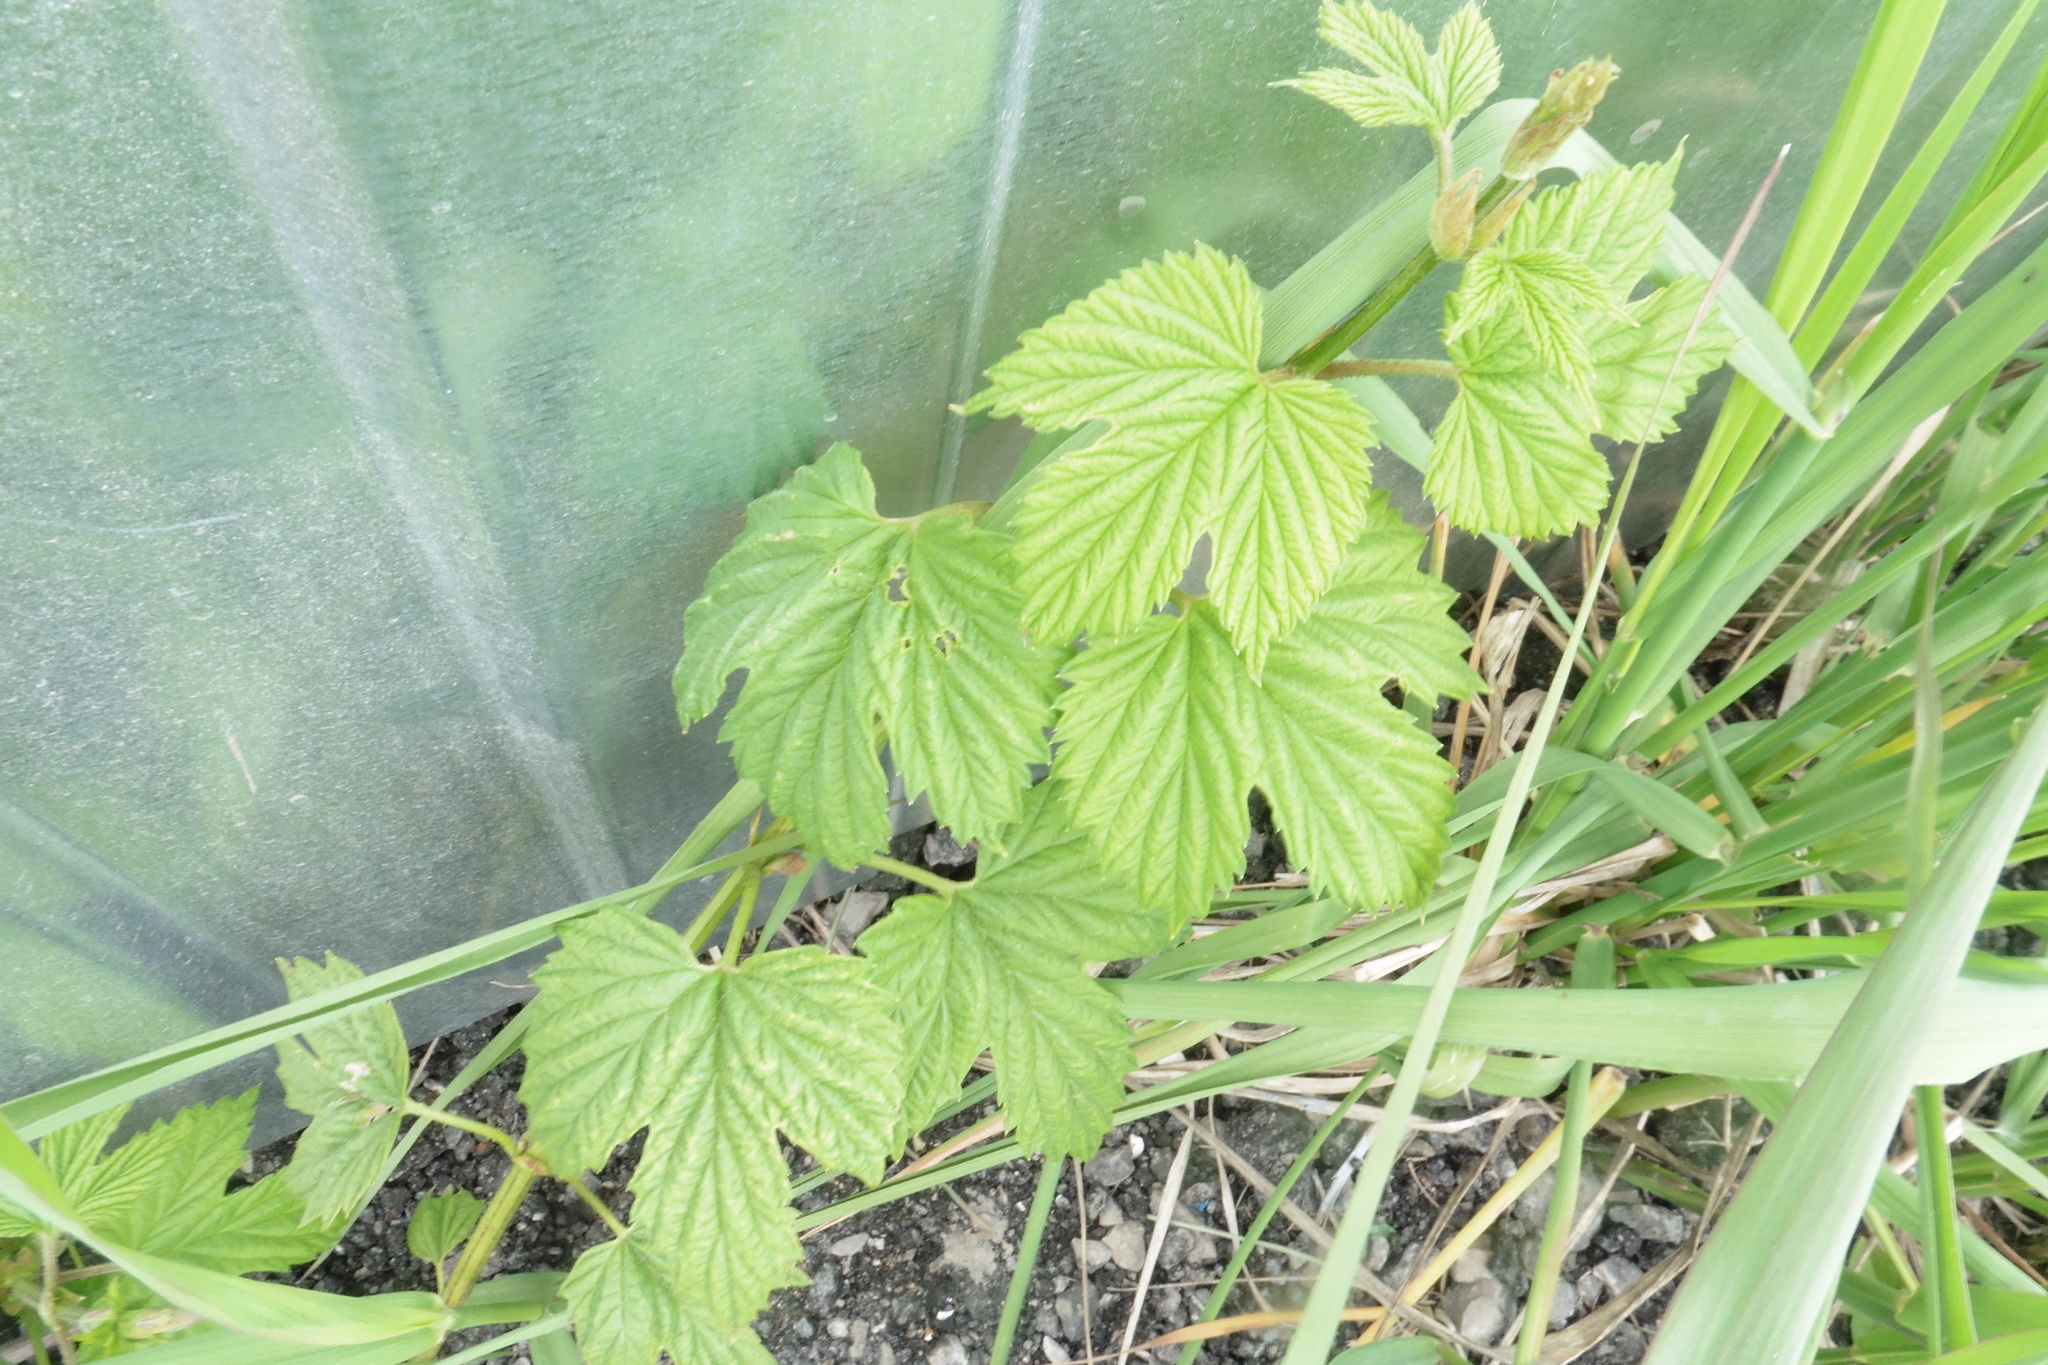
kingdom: Plantae
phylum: Tracheophyta
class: Magnoliopsida
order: Rosales
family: Cannabaceae
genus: Humulus
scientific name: Humulus lupulus
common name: Hop
